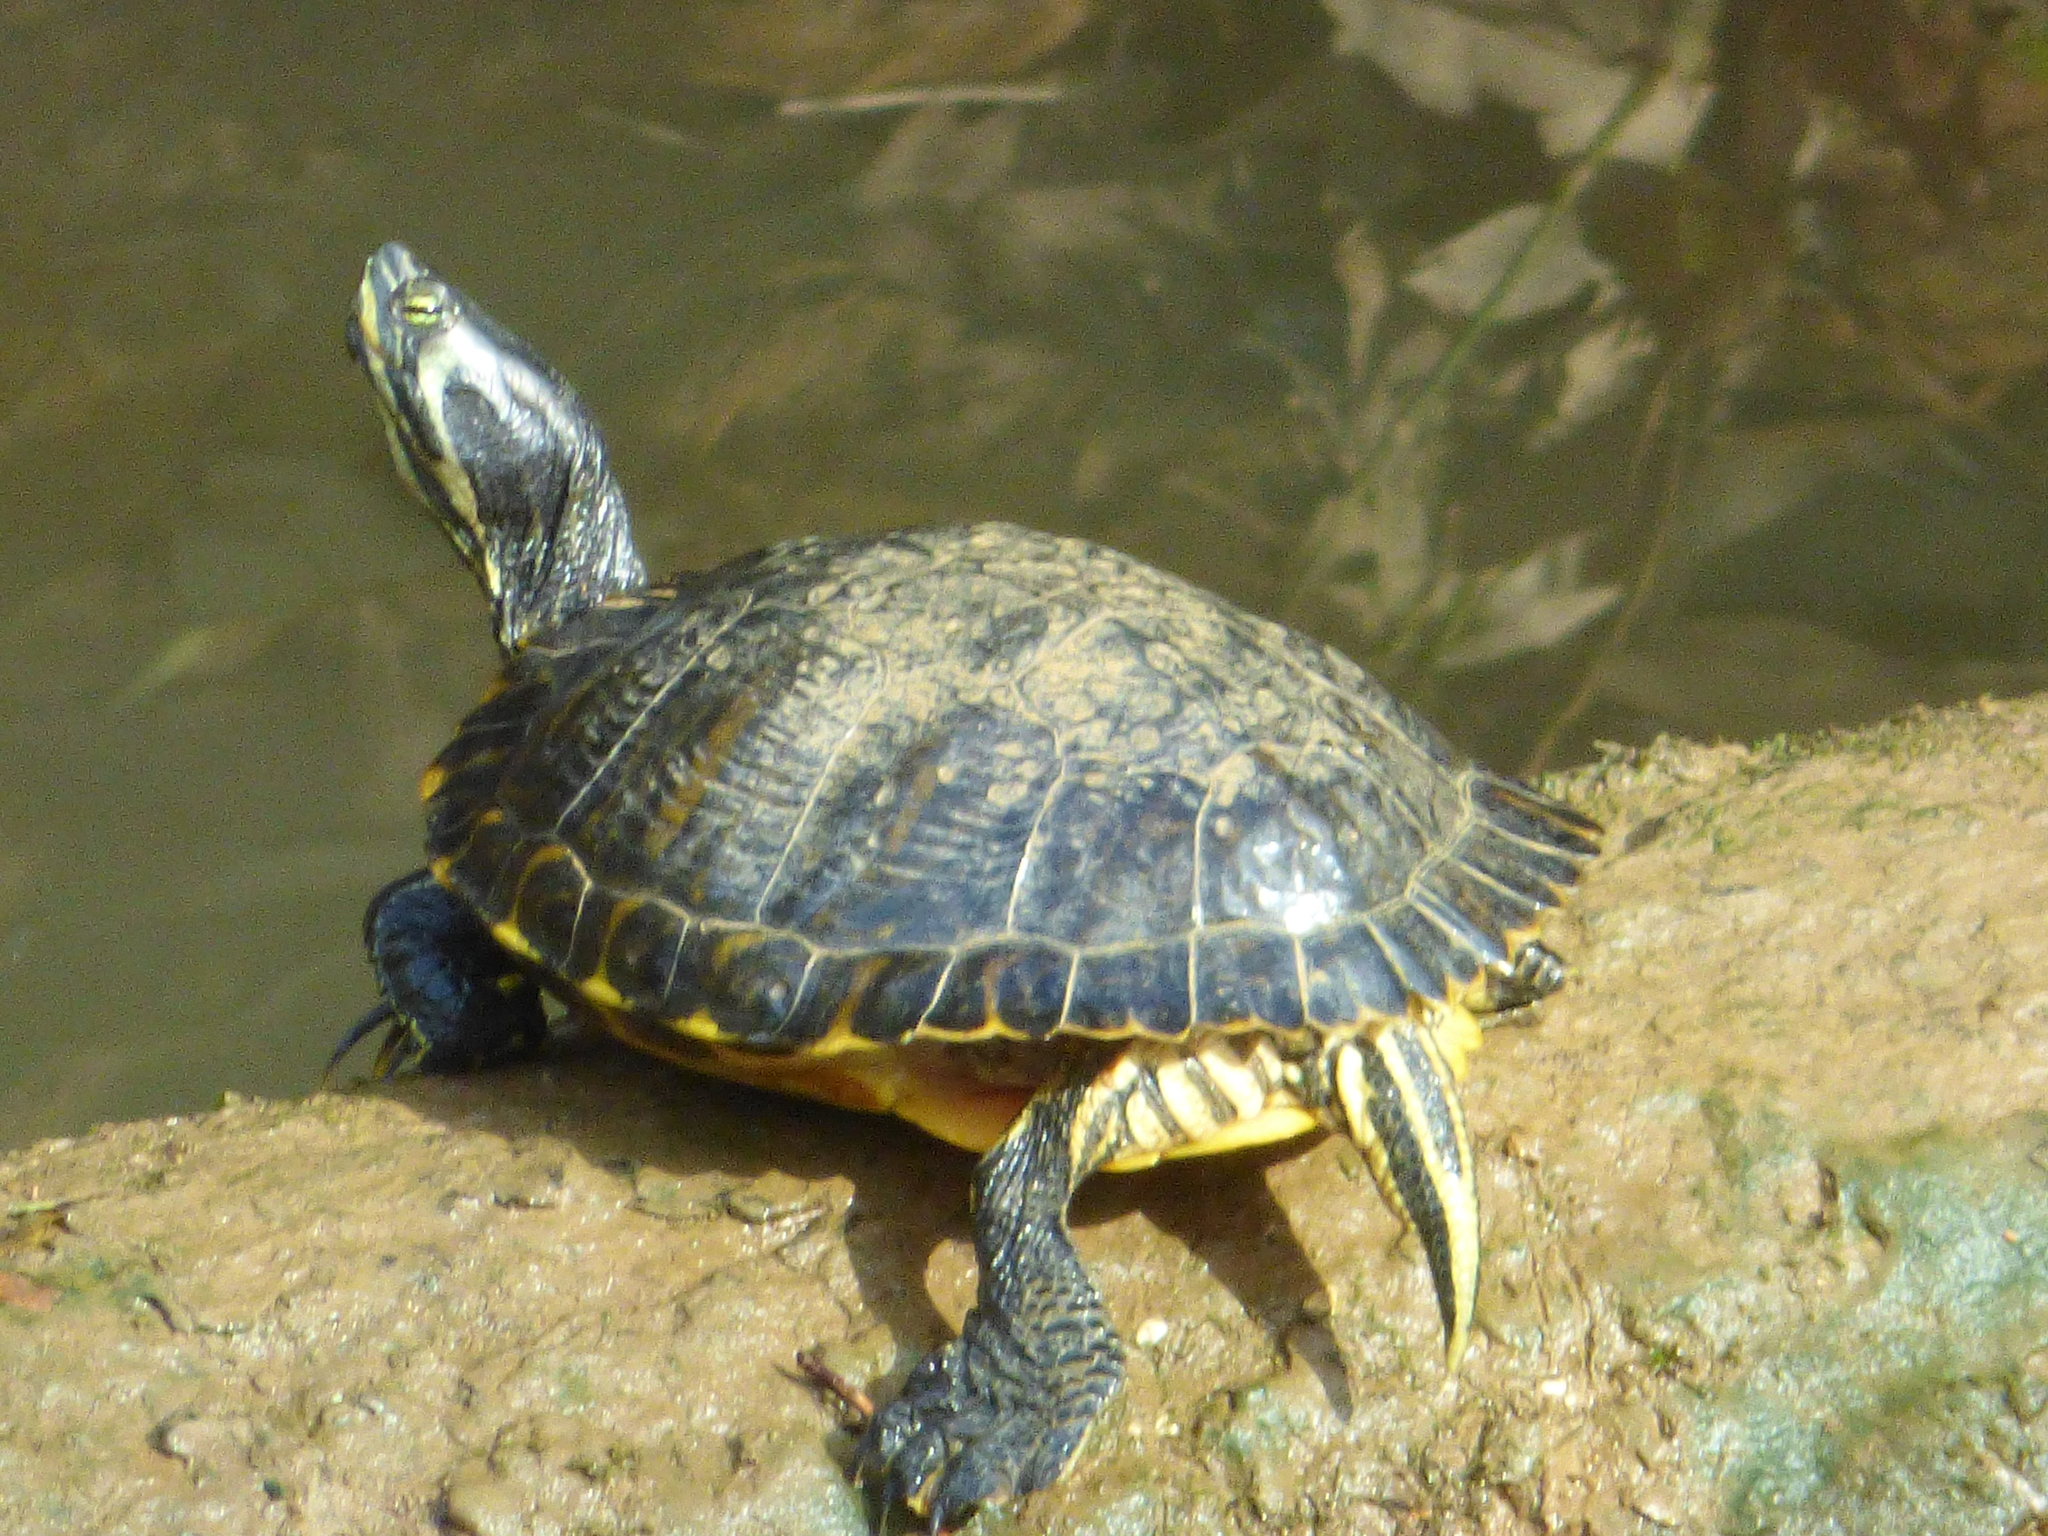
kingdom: Animalia
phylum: Chordata
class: Testudines
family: Emydidae
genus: Trachemys
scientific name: Trachemys scripta
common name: Slider
